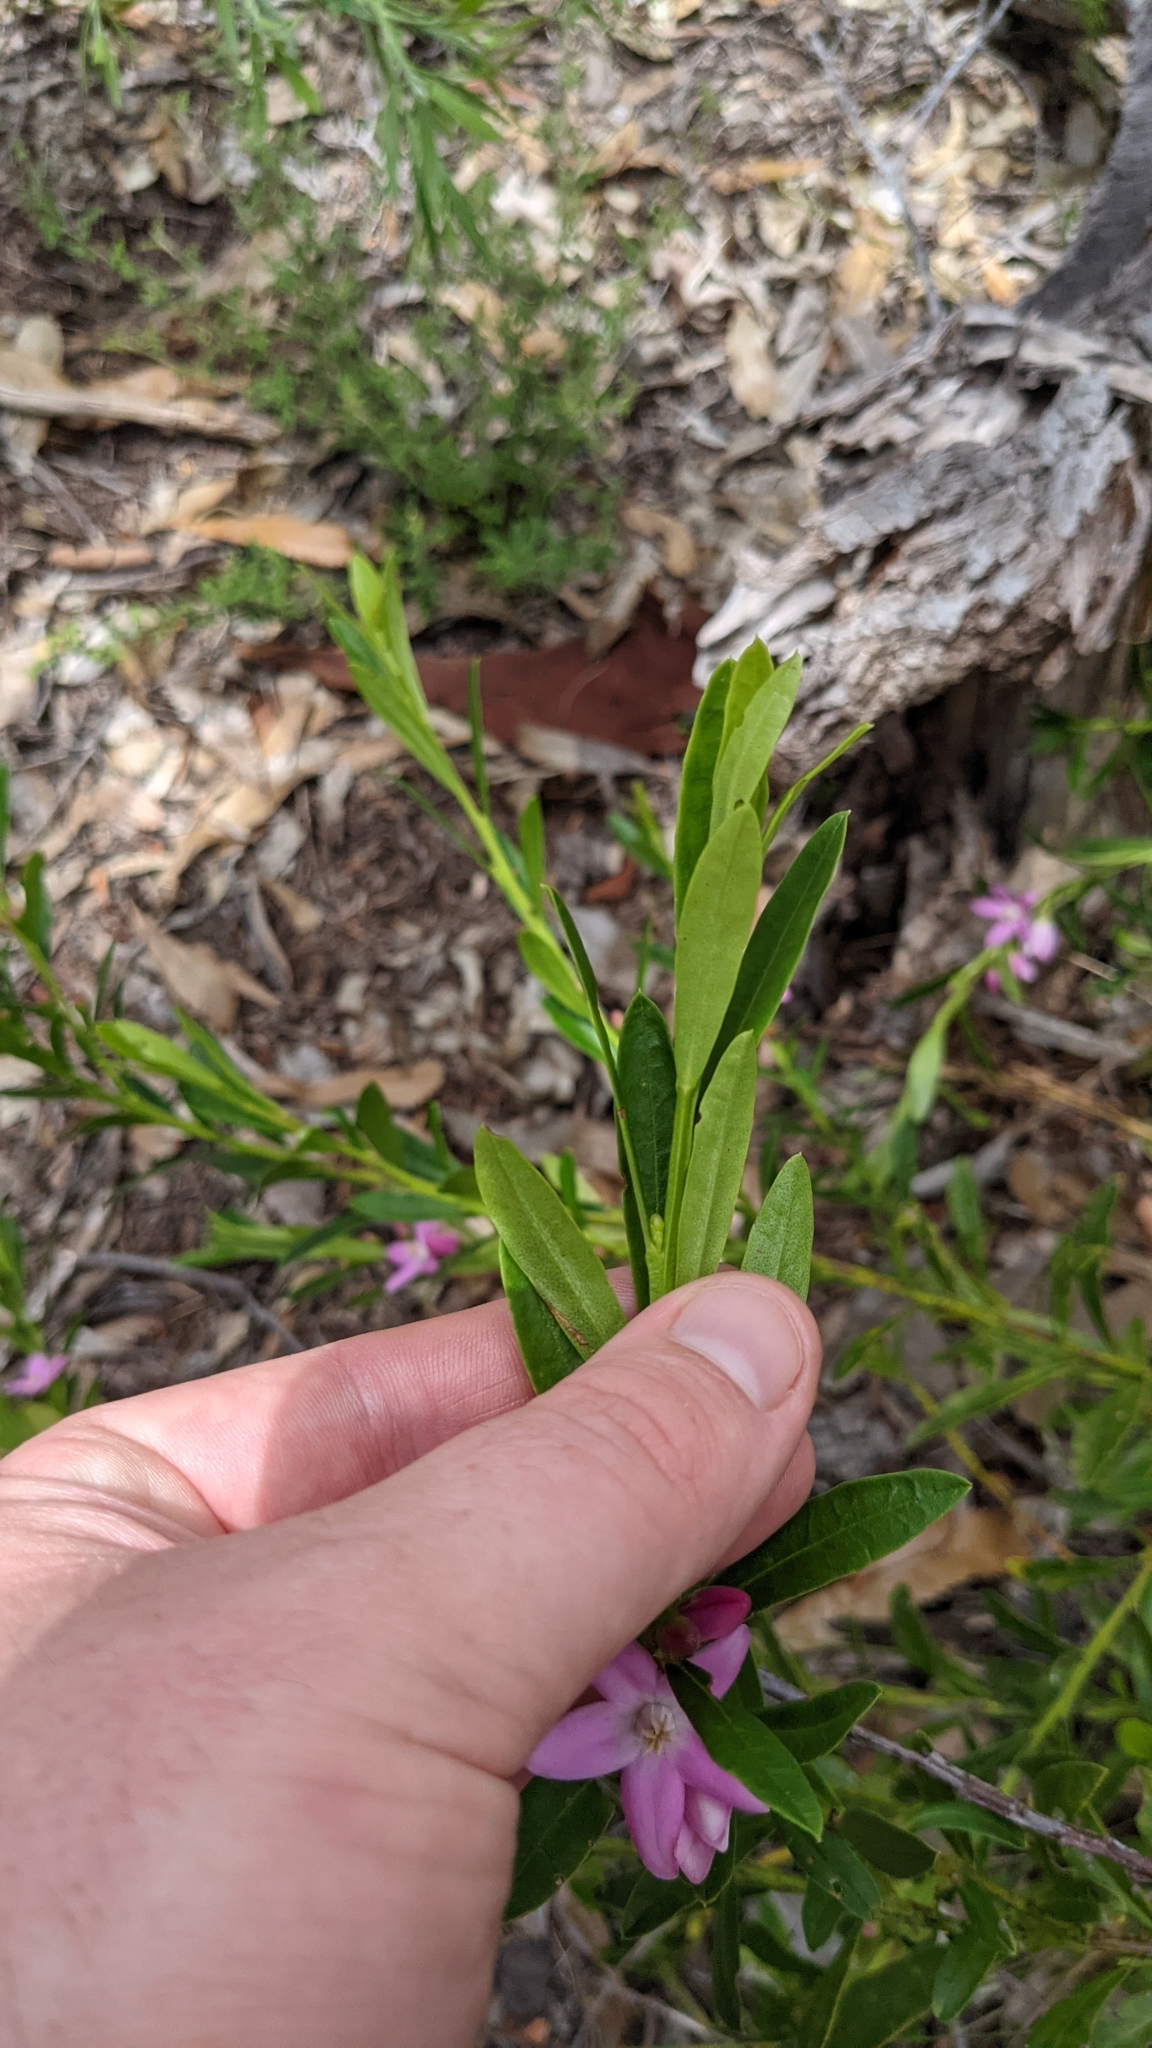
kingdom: Plantae
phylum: Tracheophyta
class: Magnoliopsida
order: Sapindales
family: Rutaceae
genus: Crowea
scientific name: Crowea saligna
